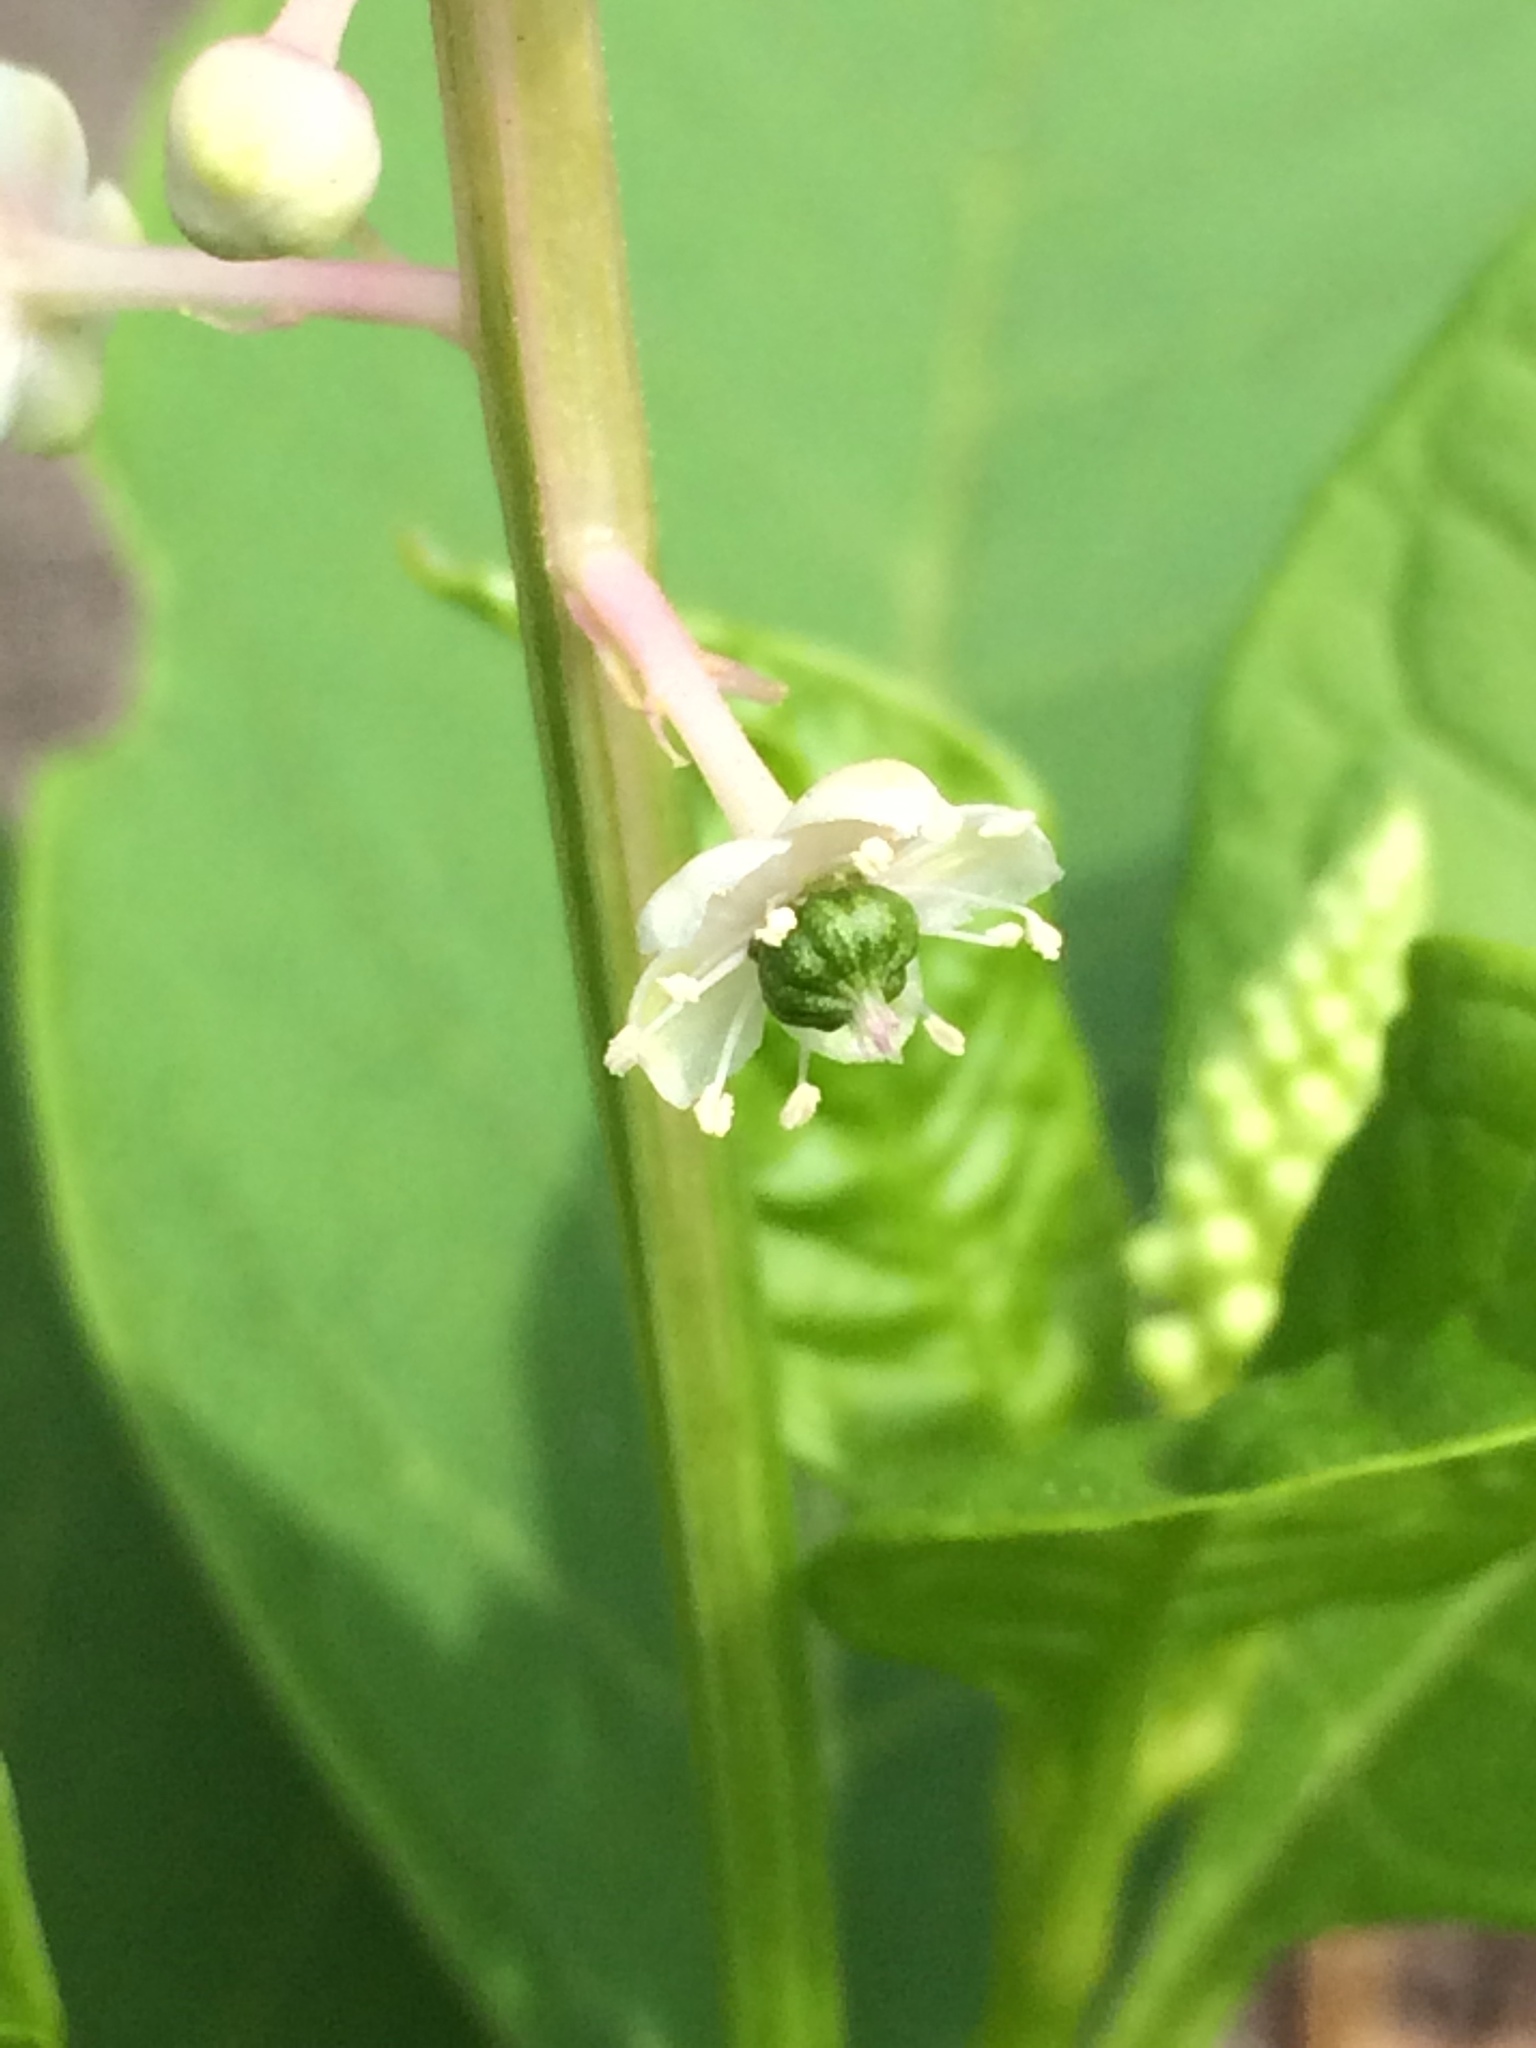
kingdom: Plantae
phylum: Tracheophyta
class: Magnoliopsida
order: Caryophyllales
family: Phytolaccaceae
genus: Phytolacca
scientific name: Phytolacca americana
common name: American pokeweed
